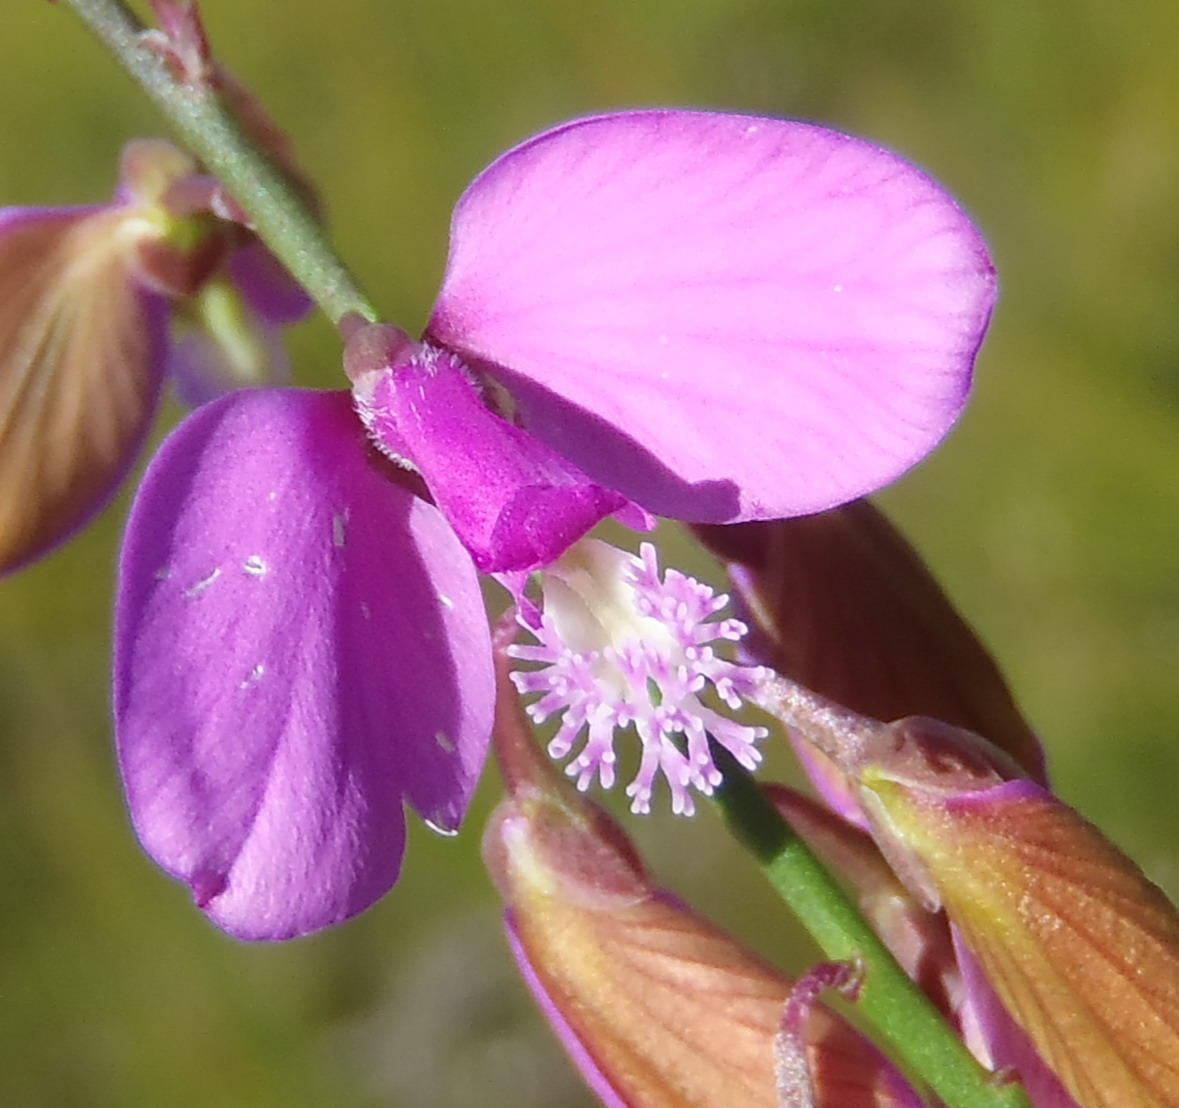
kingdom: Plantae
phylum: Tracheophyta
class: Magnoliopsida
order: Fabales
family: Polygalaceae
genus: Polygala
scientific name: Polygala garcini
